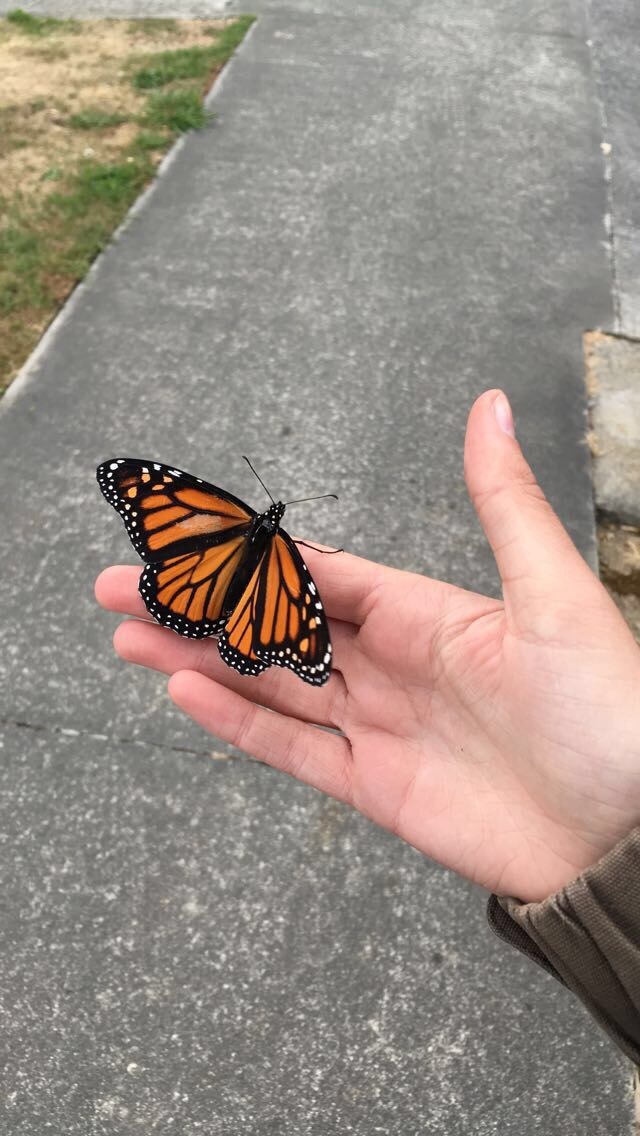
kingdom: Animalia
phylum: Arthropoda
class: Insecta
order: Lepidoptera
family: Nymphalidae
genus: Danaus
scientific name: Danaus plexippus
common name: Monarch
